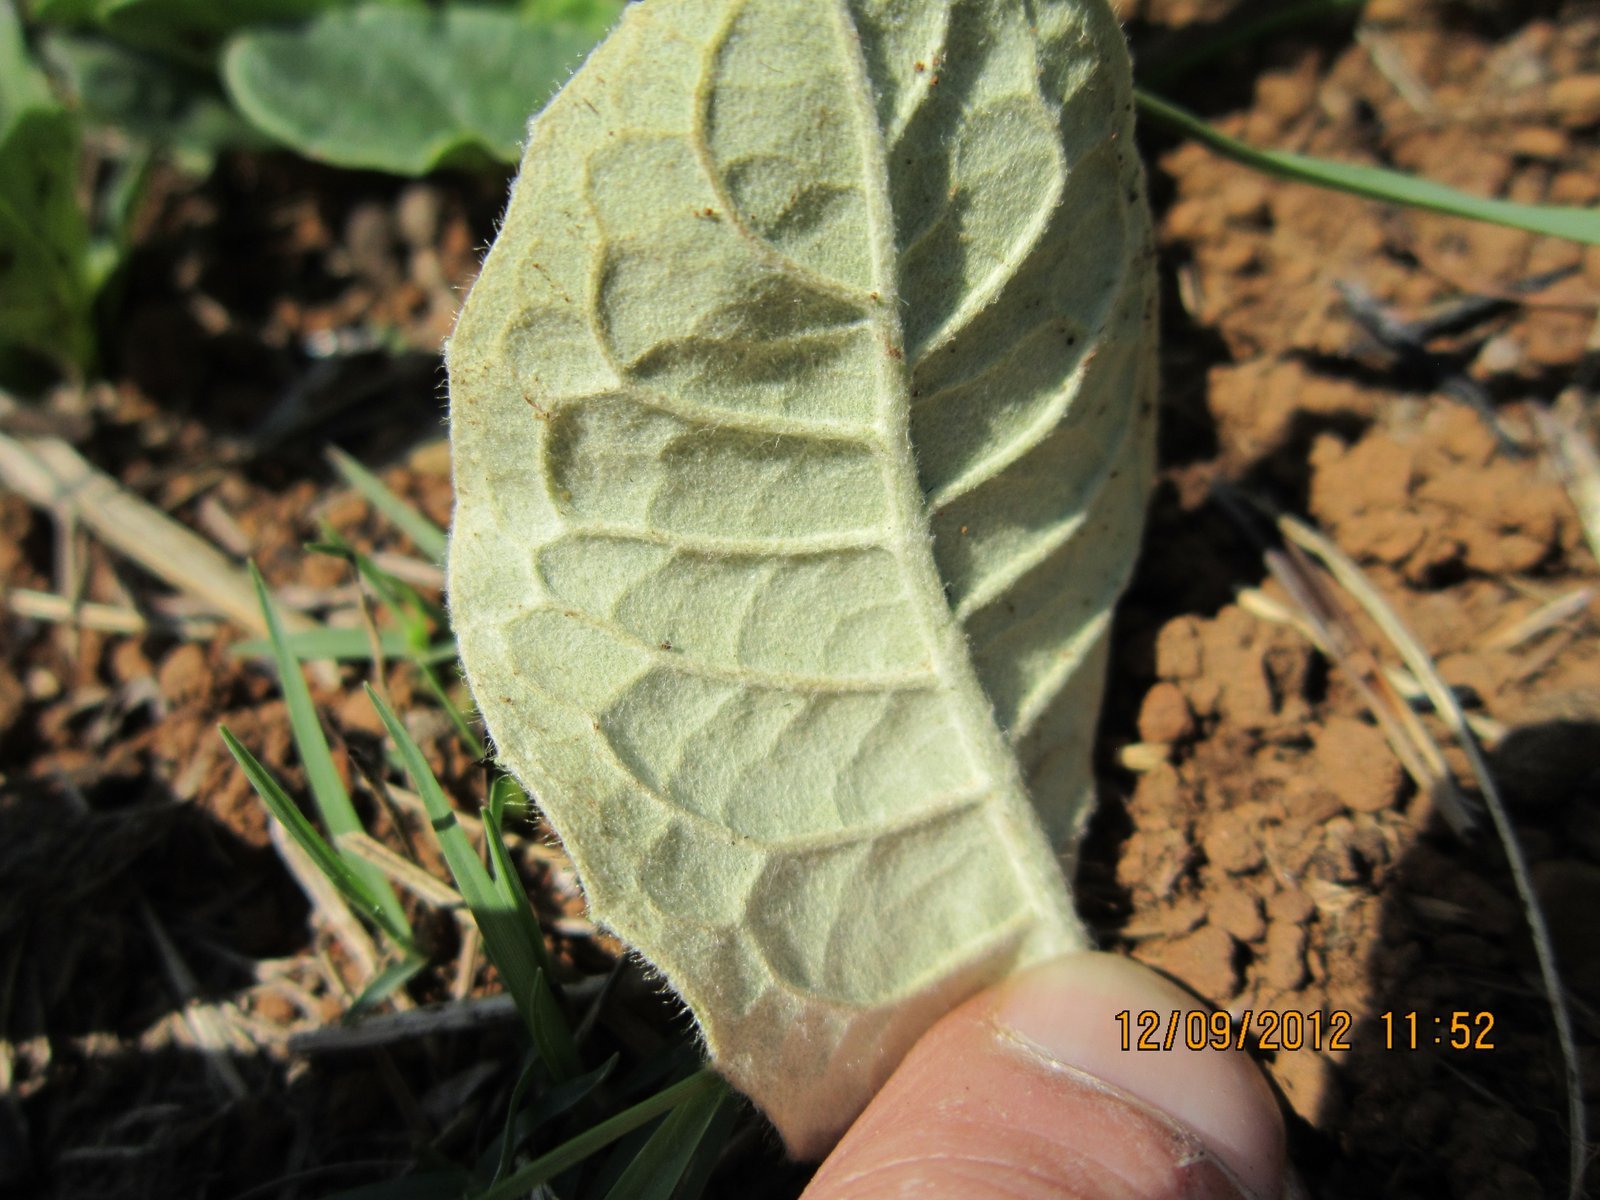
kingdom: Plantae
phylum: Tracheophyta
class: Magnoliopsida
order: Asterales
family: Asteraceae
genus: Gerbera
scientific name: Gerbera ambigua
